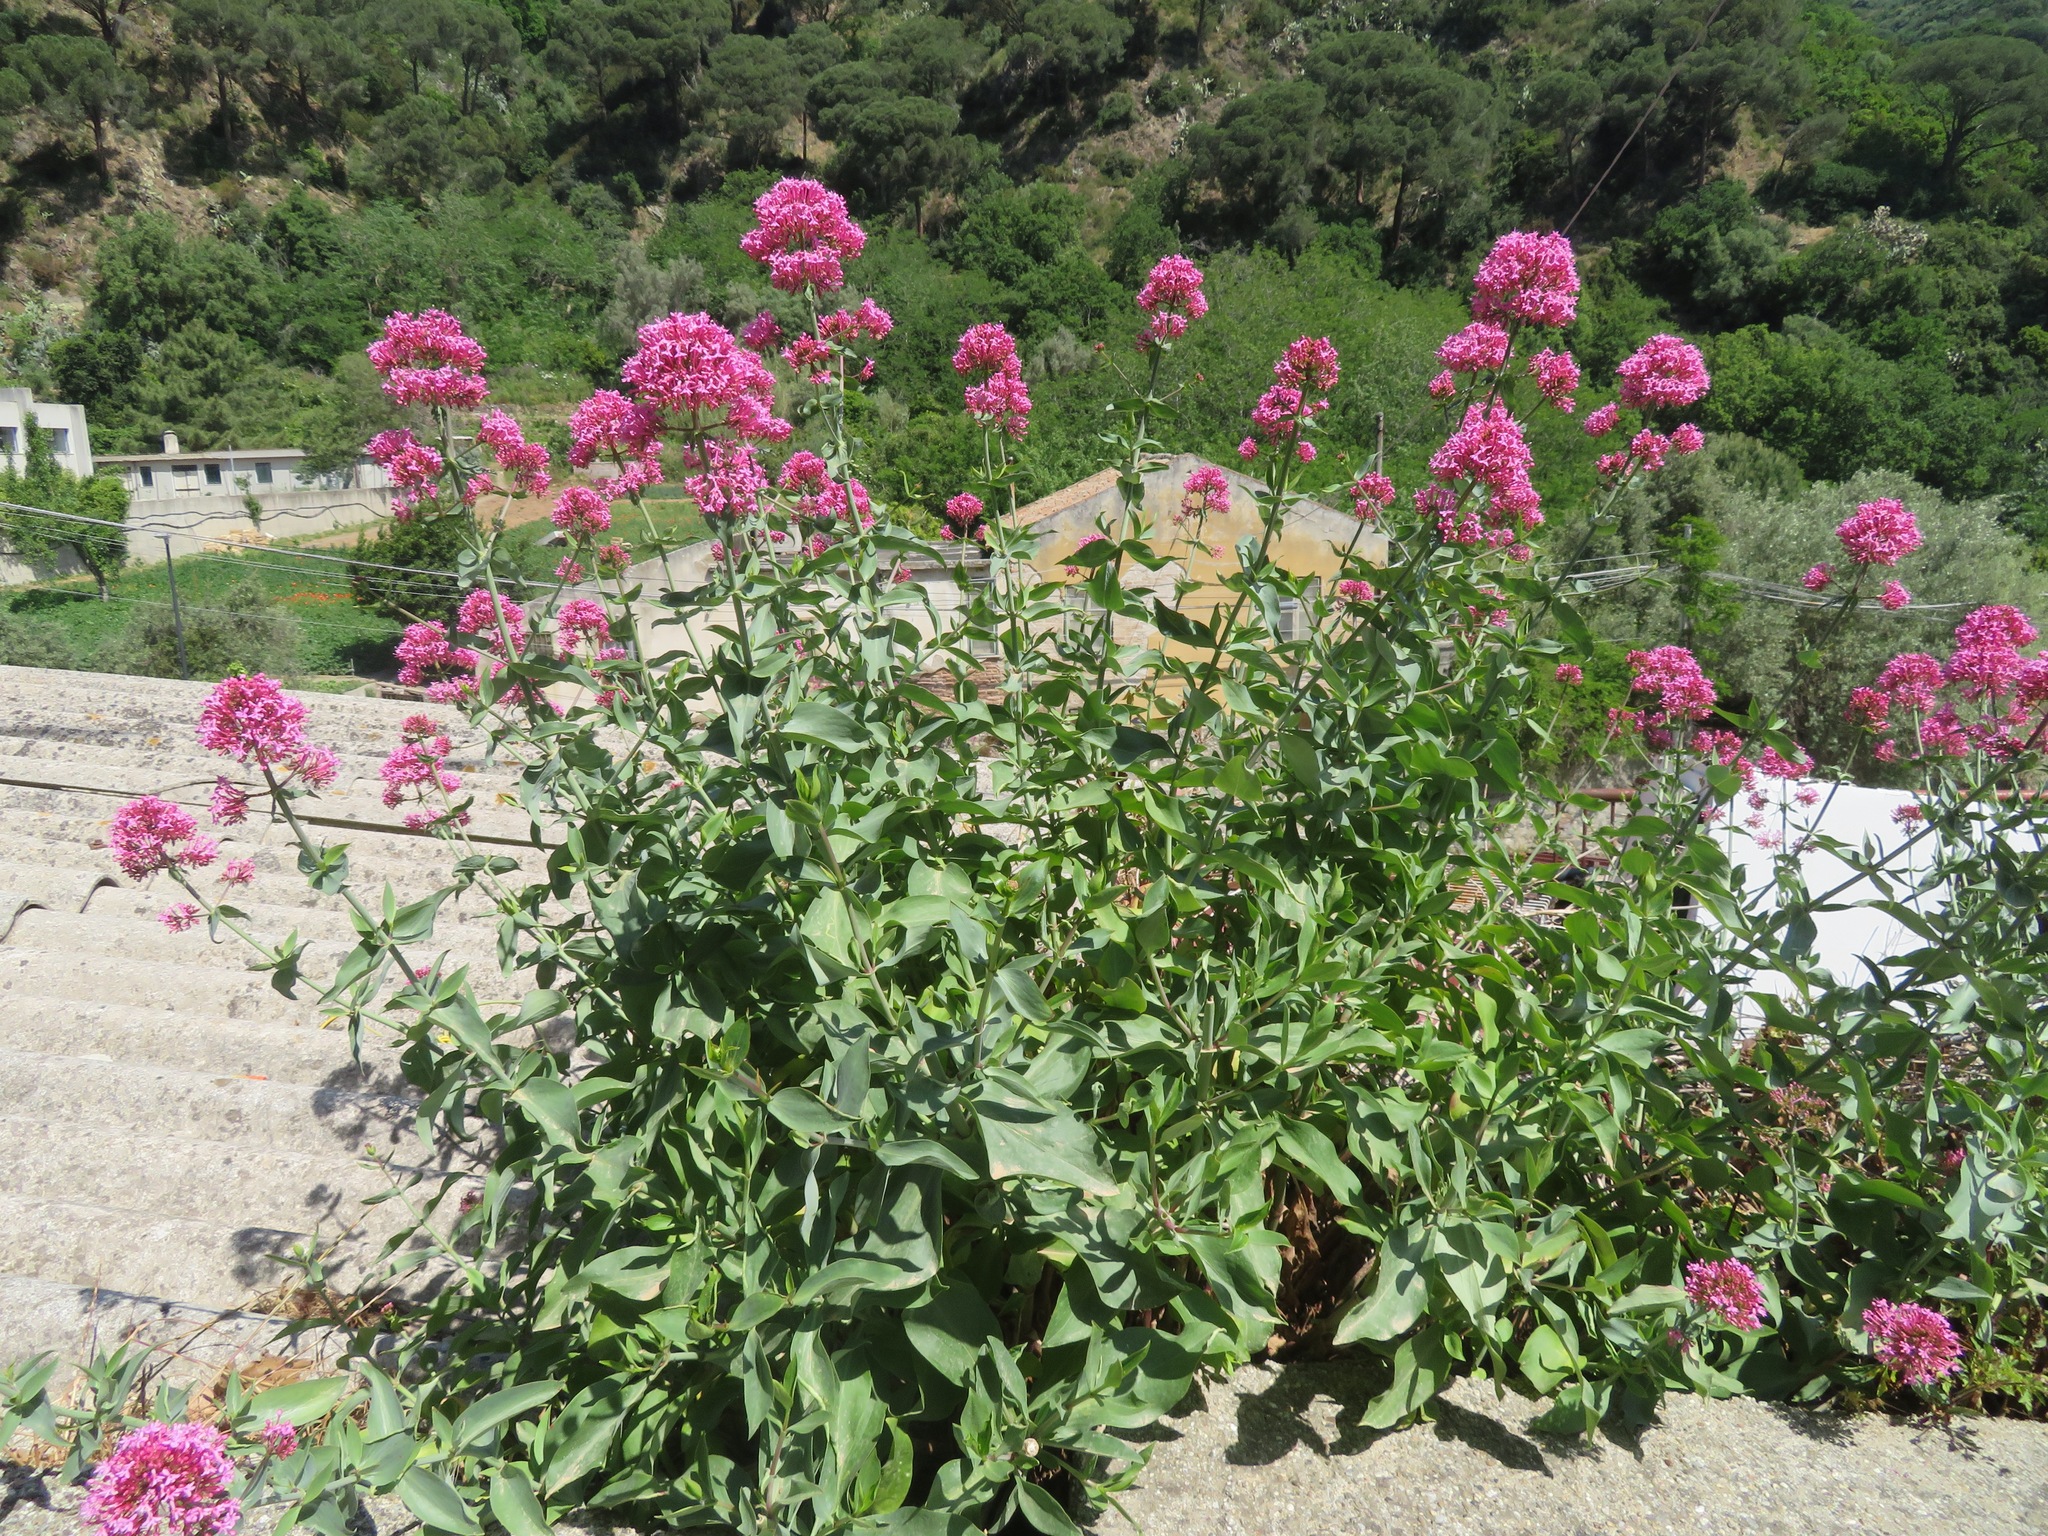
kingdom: Plantae
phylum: Tracheophyta
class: Magnoliopsida
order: Dipsacales
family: Caprifoliaceae
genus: Centranthus
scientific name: Centranthus ruber
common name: Red valerian
